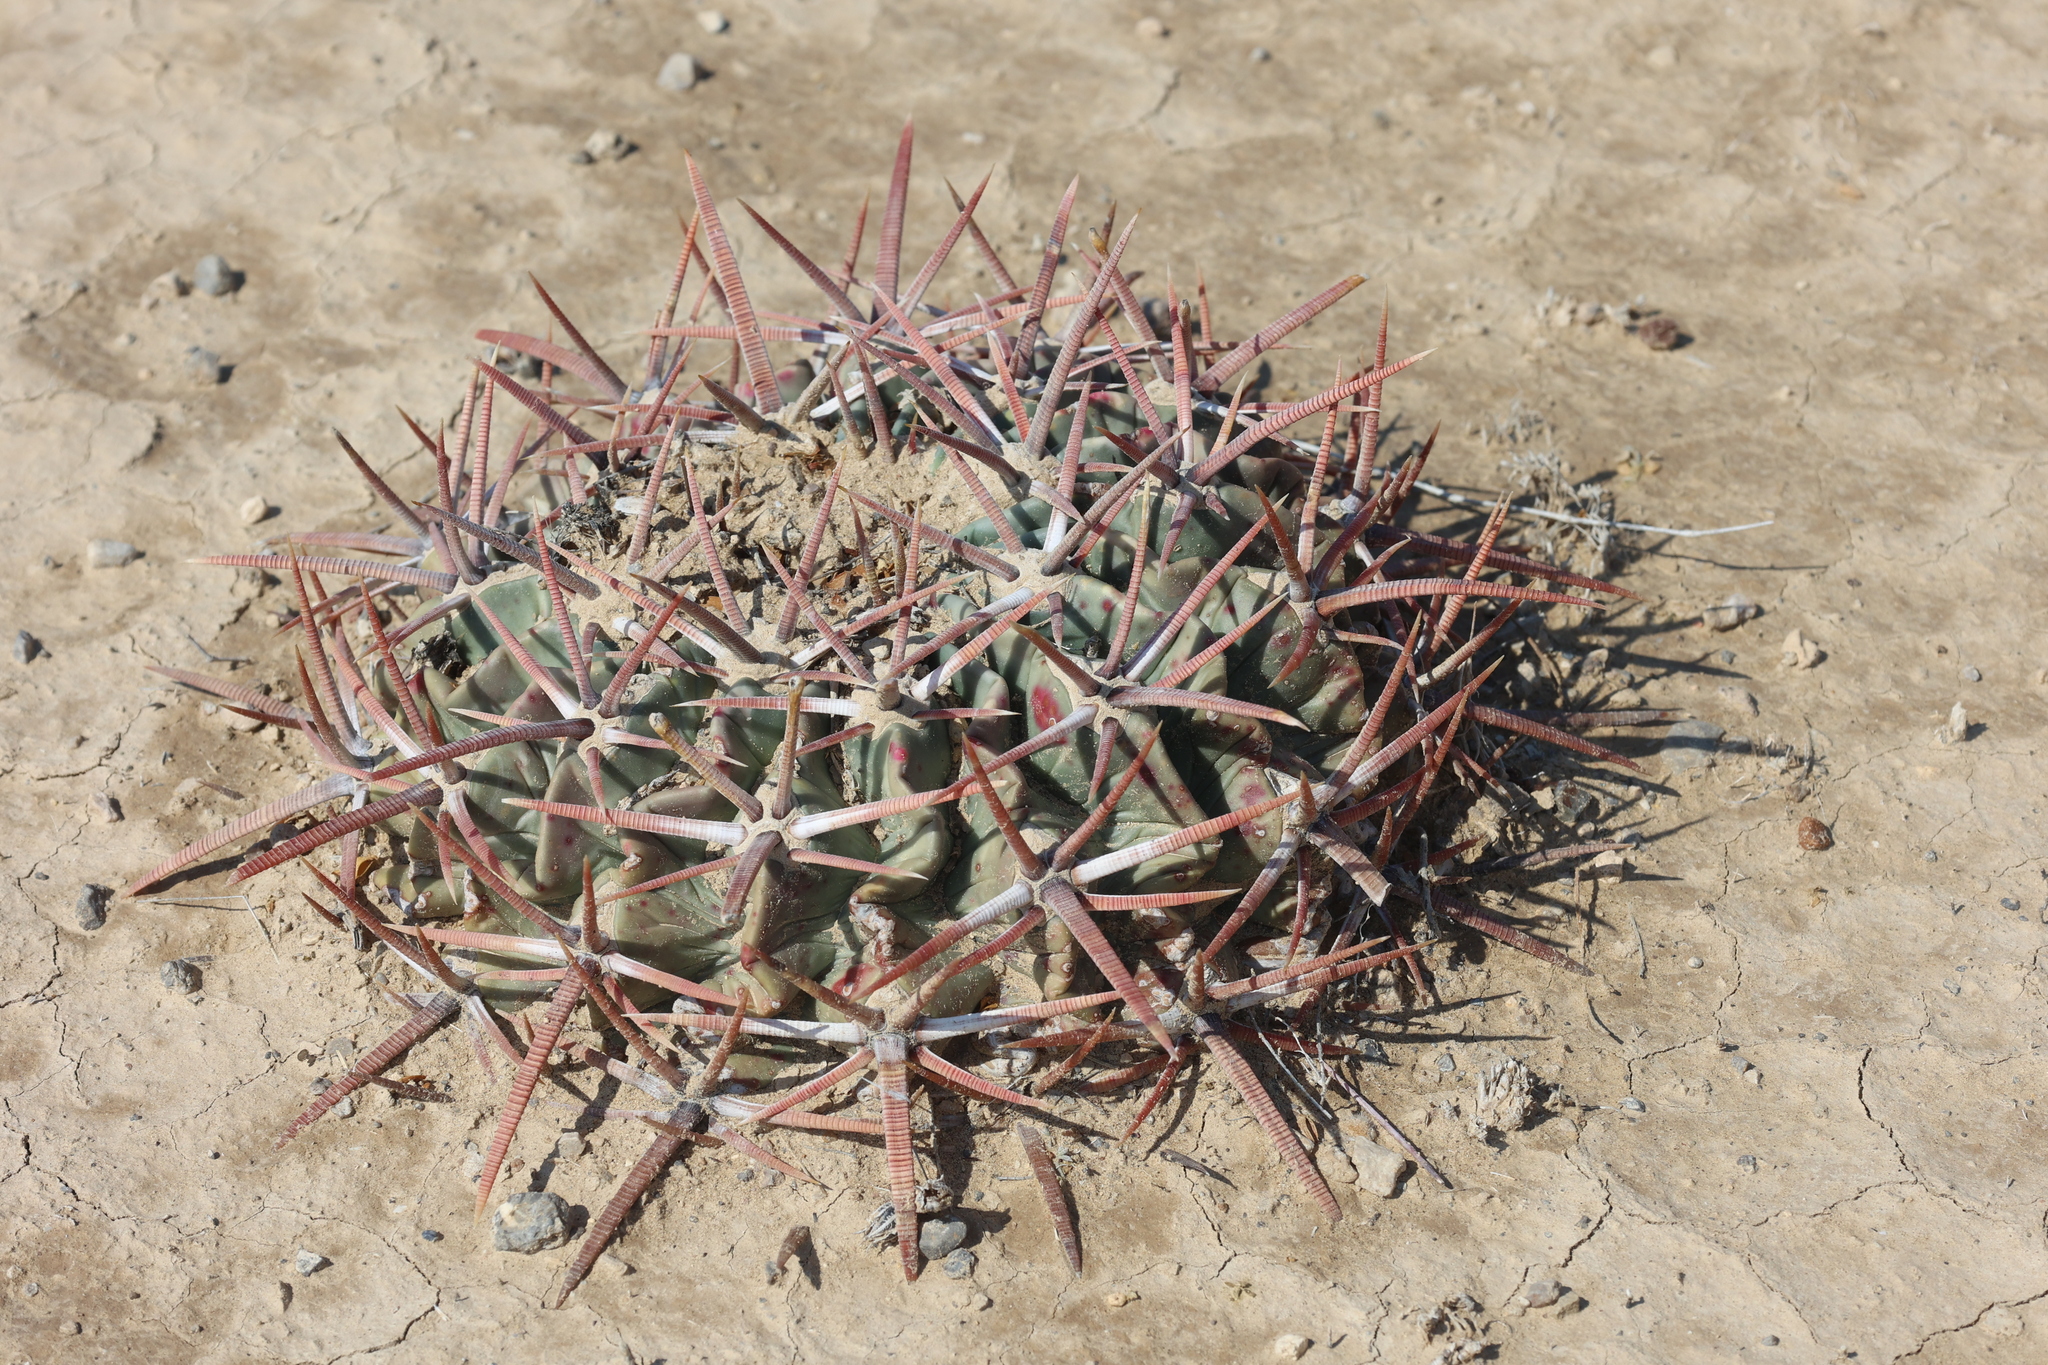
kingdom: Plantae
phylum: Tracheophyta
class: Magnoliopsida
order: Caryophyllales
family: Cactaceae
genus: Echinocactus
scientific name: Echinocactus texensis
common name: Devil's pincushion
